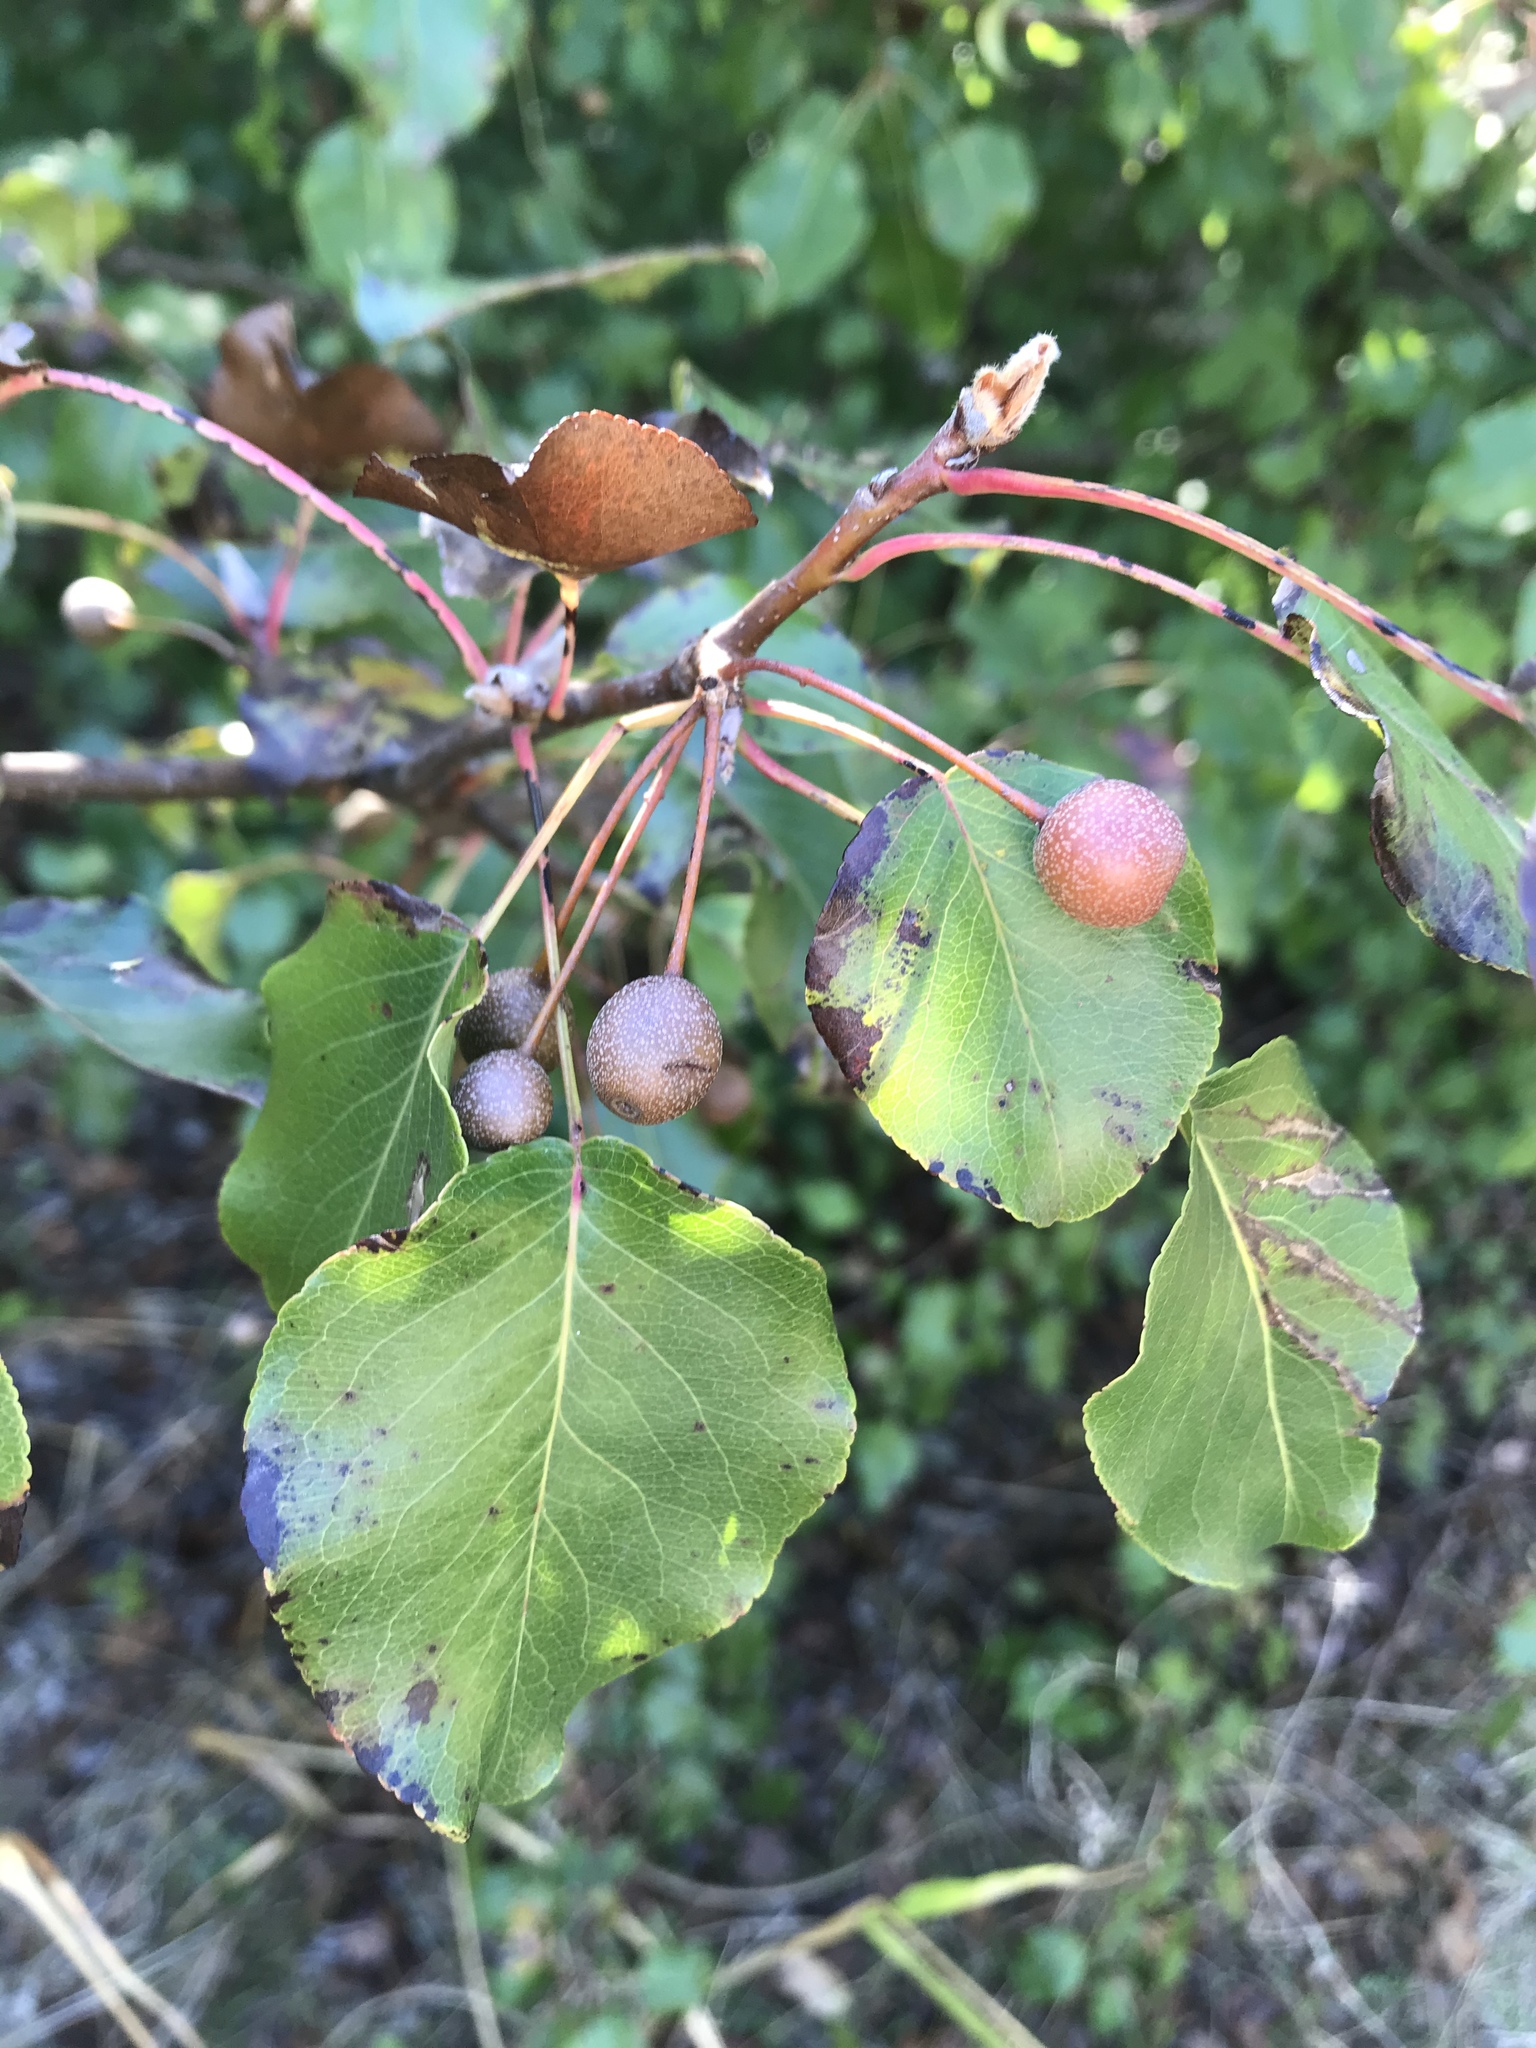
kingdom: Plantae
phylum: Tracheophyta
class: Magnoliopsida
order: Rosales
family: Rosaceae
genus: Pyrus
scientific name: Pyrus calleryana
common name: Callery pear
